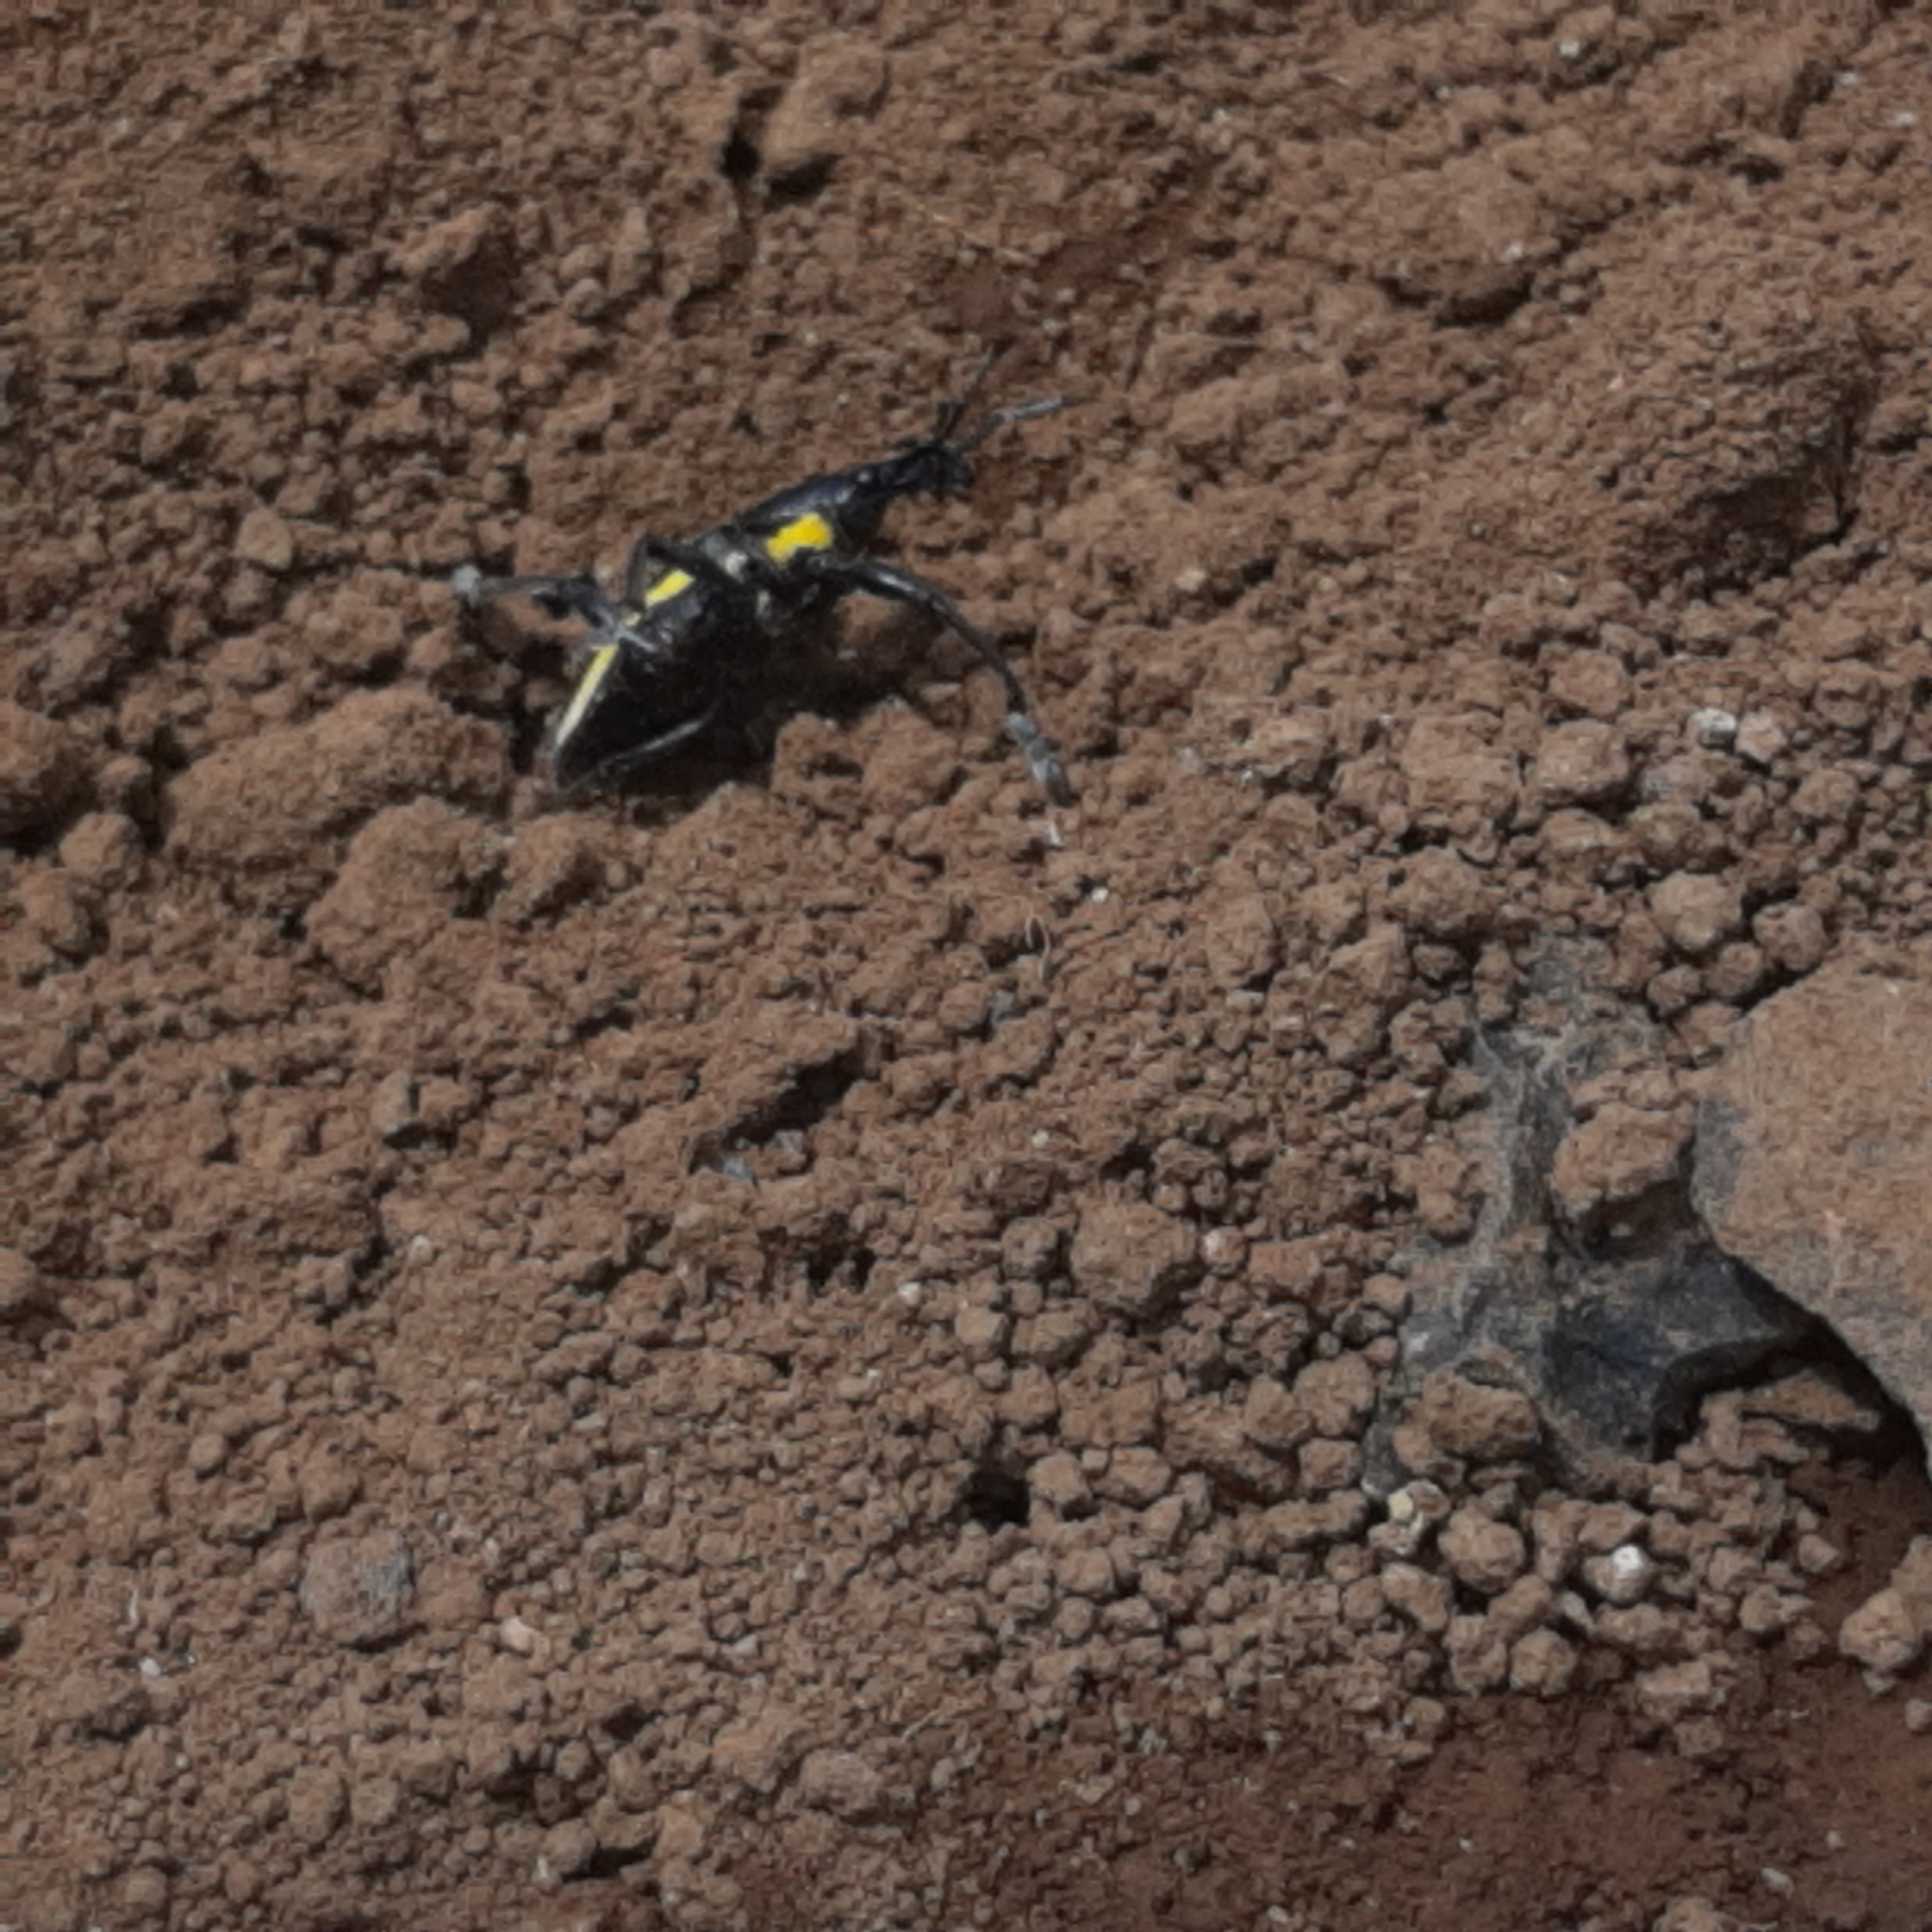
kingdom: Animalia
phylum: Arthropoda
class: Insecta
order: Coleoptera
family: Curculionidae
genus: Rhinospathe
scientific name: Rhinospathe albomarginata
